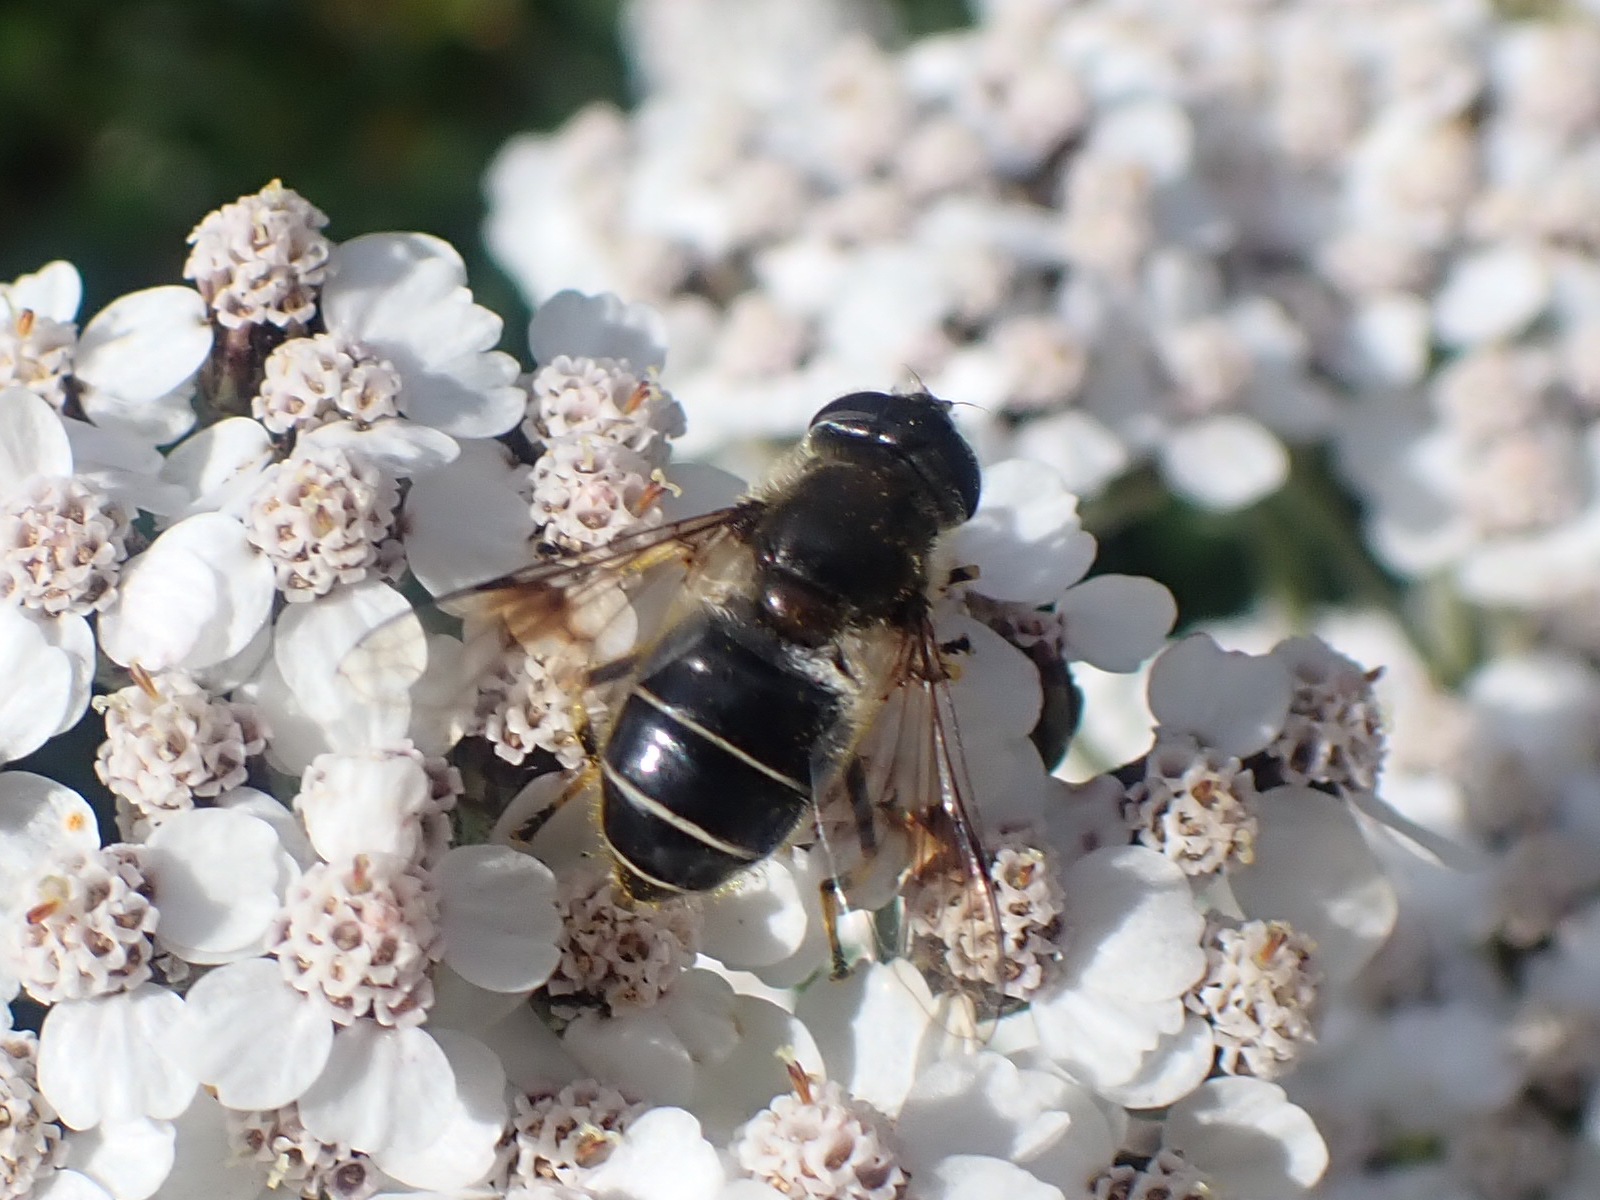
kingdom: Animalia
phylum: Arthropoda
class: Insecta
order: Diptera
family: Syrphidae
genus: Eristalis
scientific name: Eristalis rupium
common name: Hover fly
